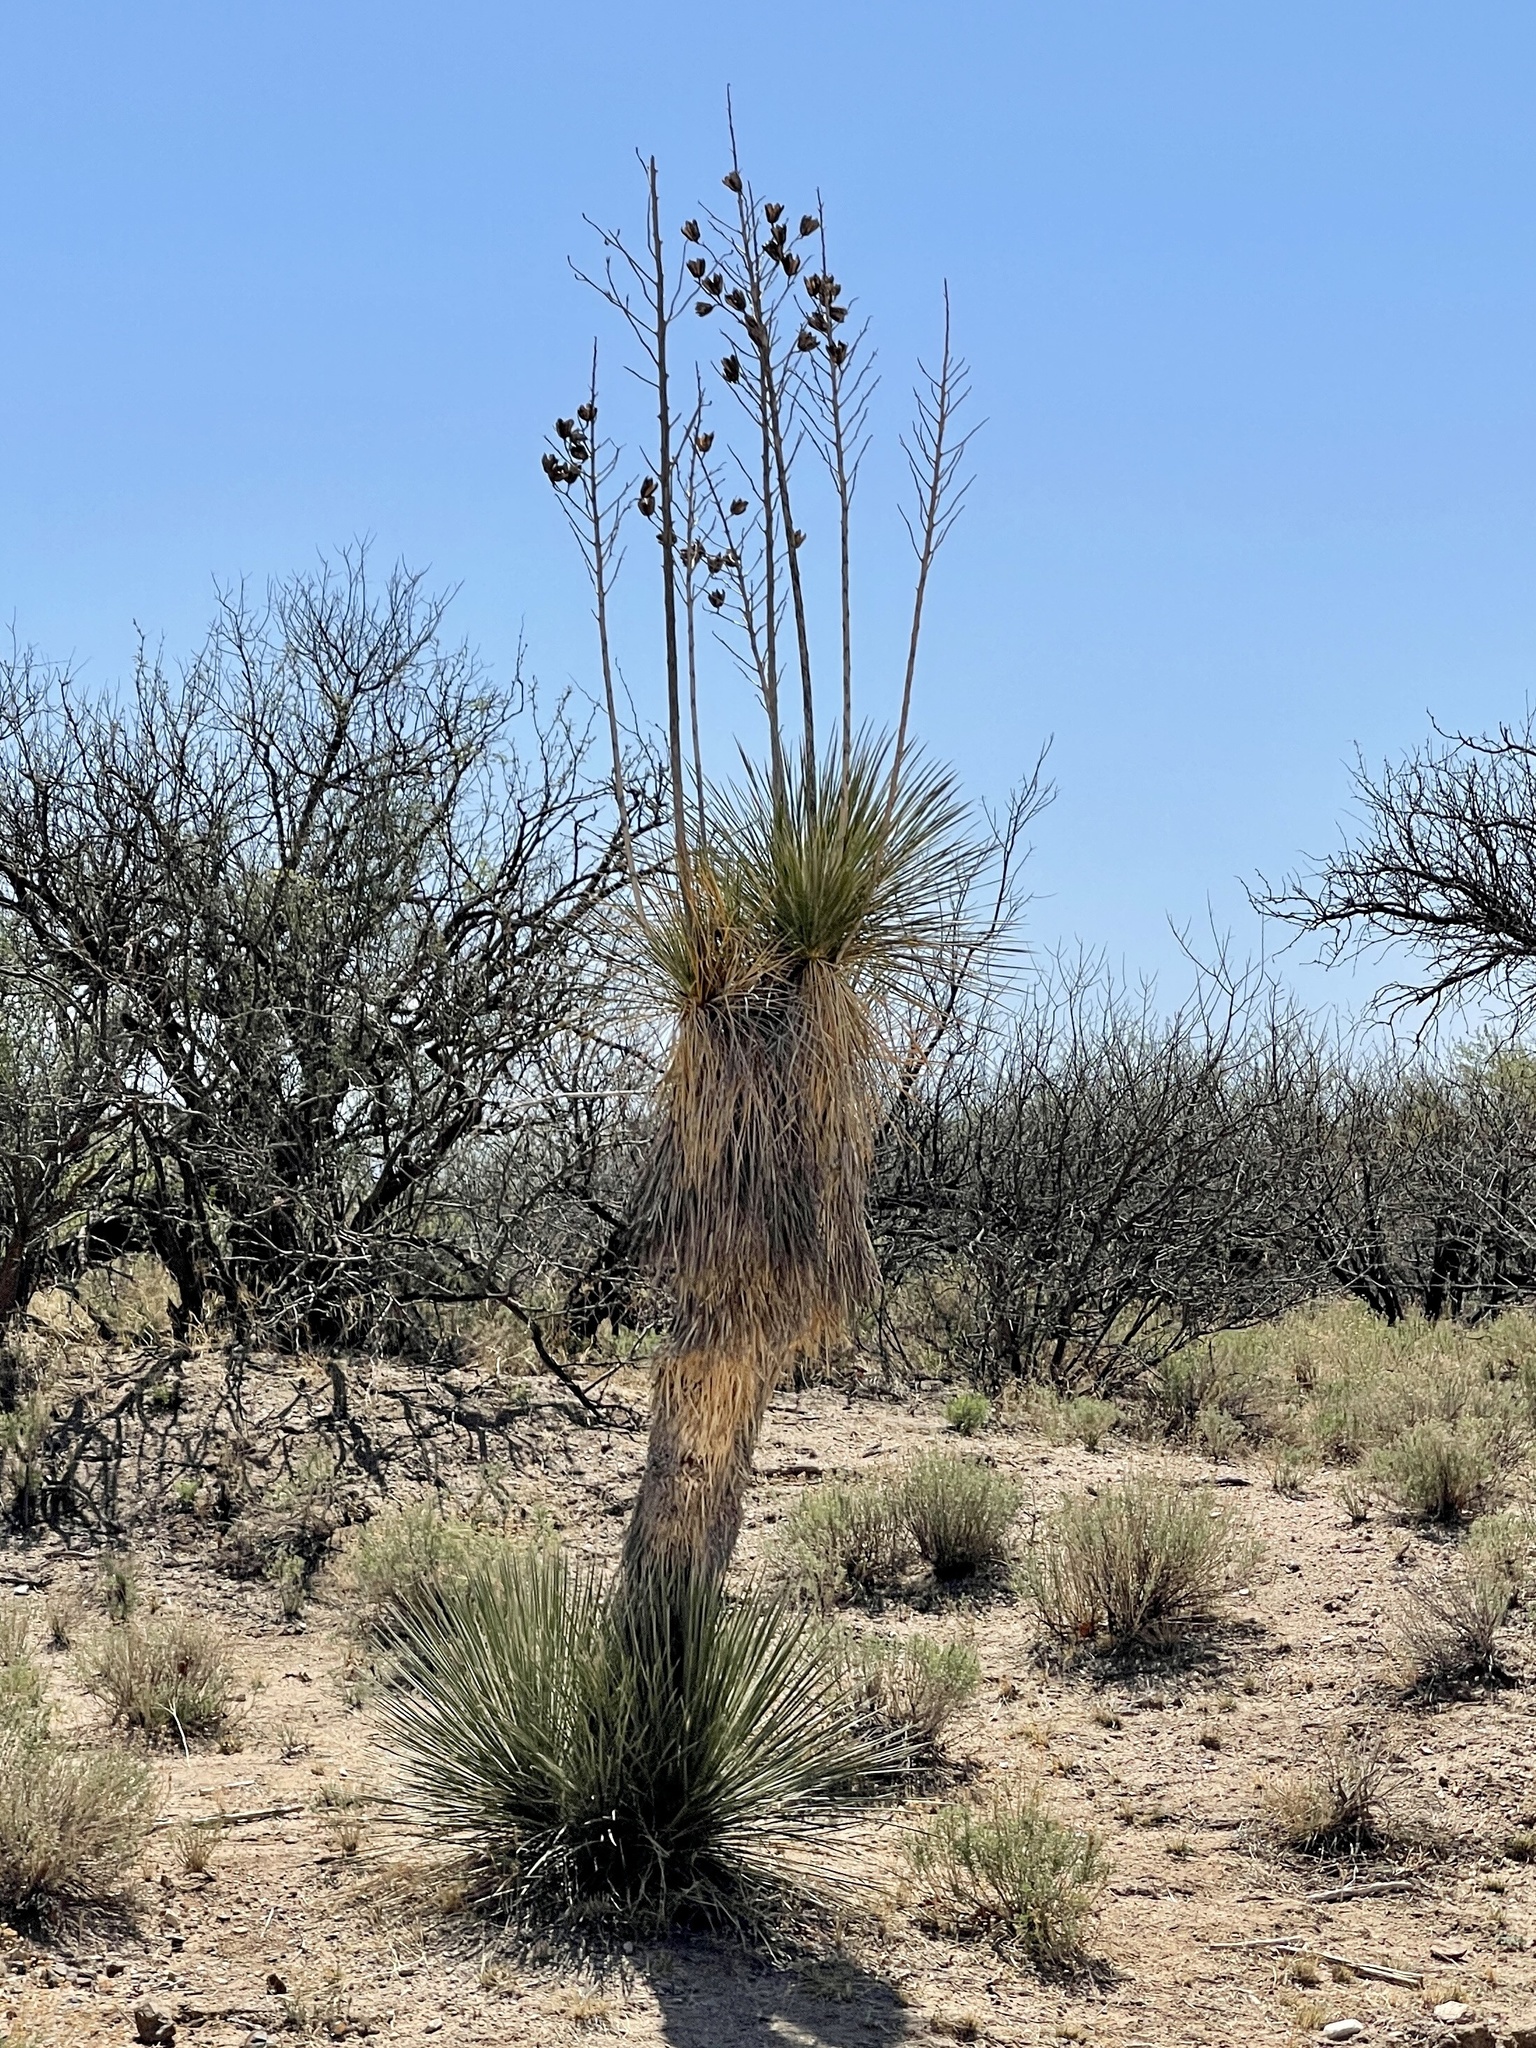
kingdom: Plantae
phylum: Tracheophyta
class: Liliopsida
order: Asparagales
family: Asparagaceae
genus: Yucca
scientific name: Yucca elata
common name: Palmella
